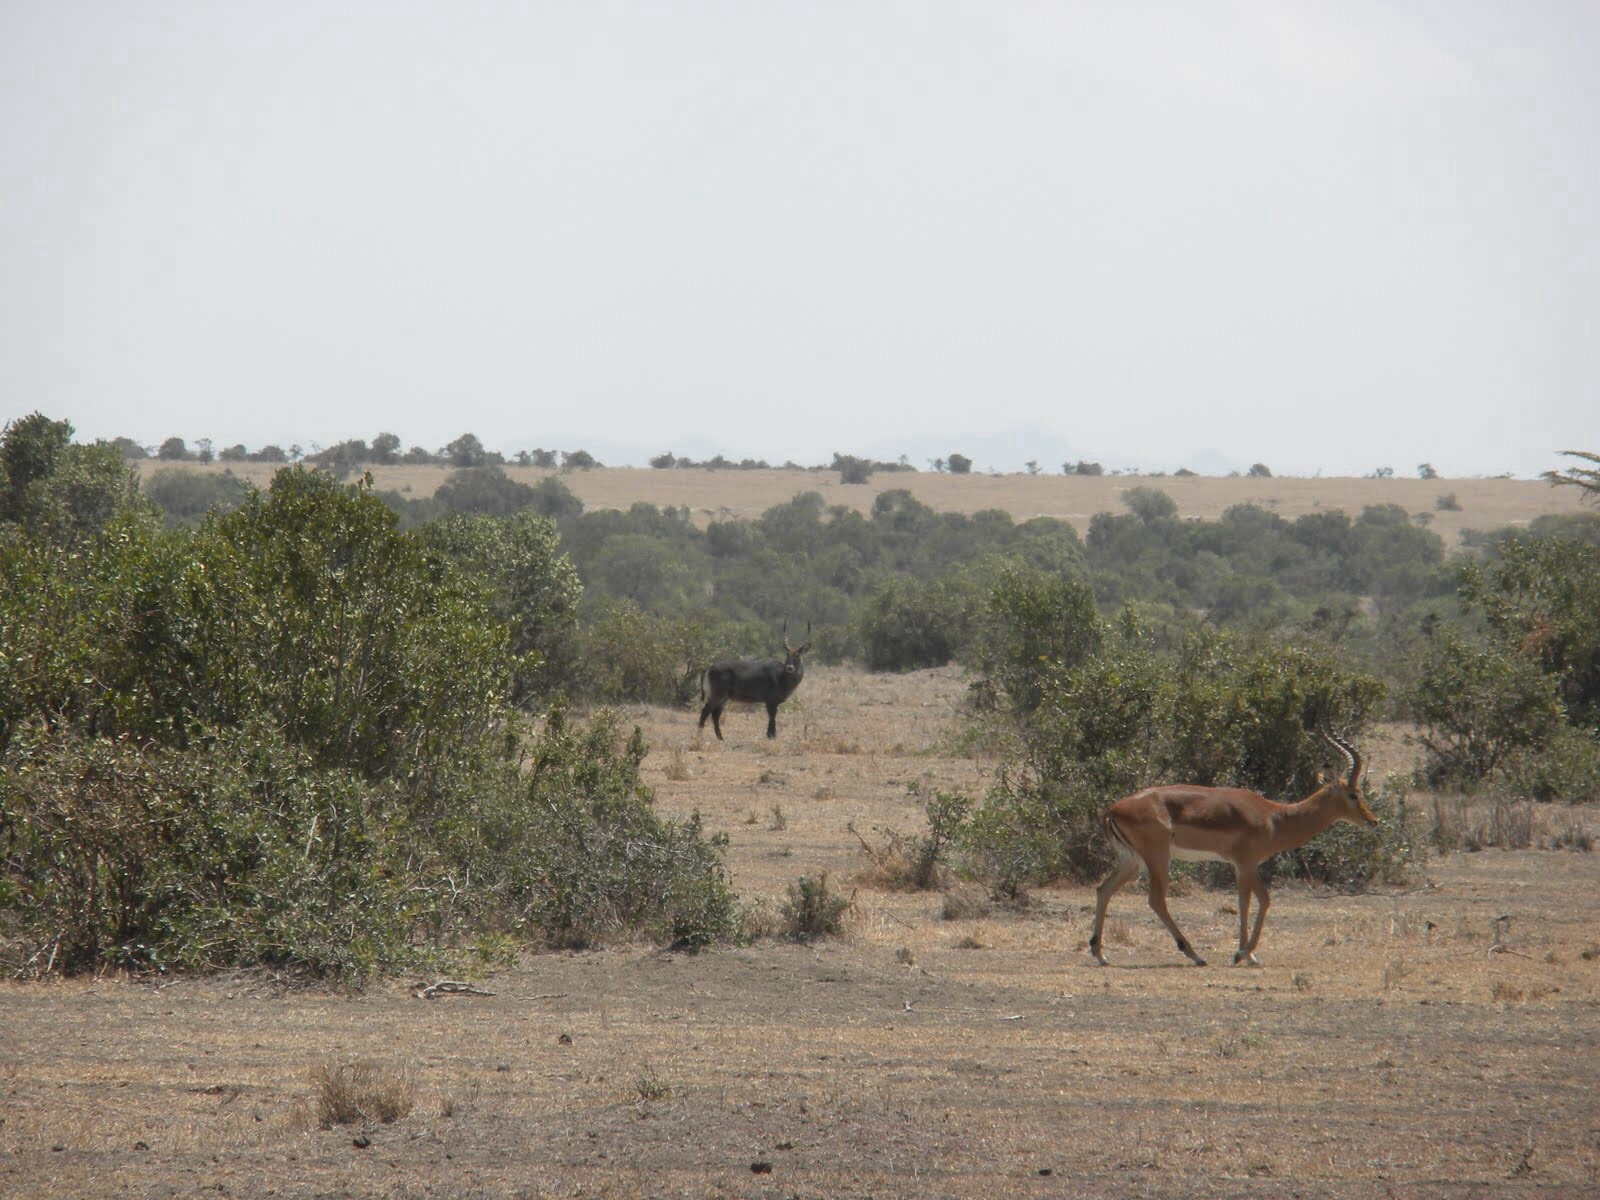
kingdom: Animalia
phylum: Chordata
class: Mammalia
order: Artiodactyla
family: Bovidae
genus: Aepyceros
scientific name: Aepyceros melampus
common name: Impala
